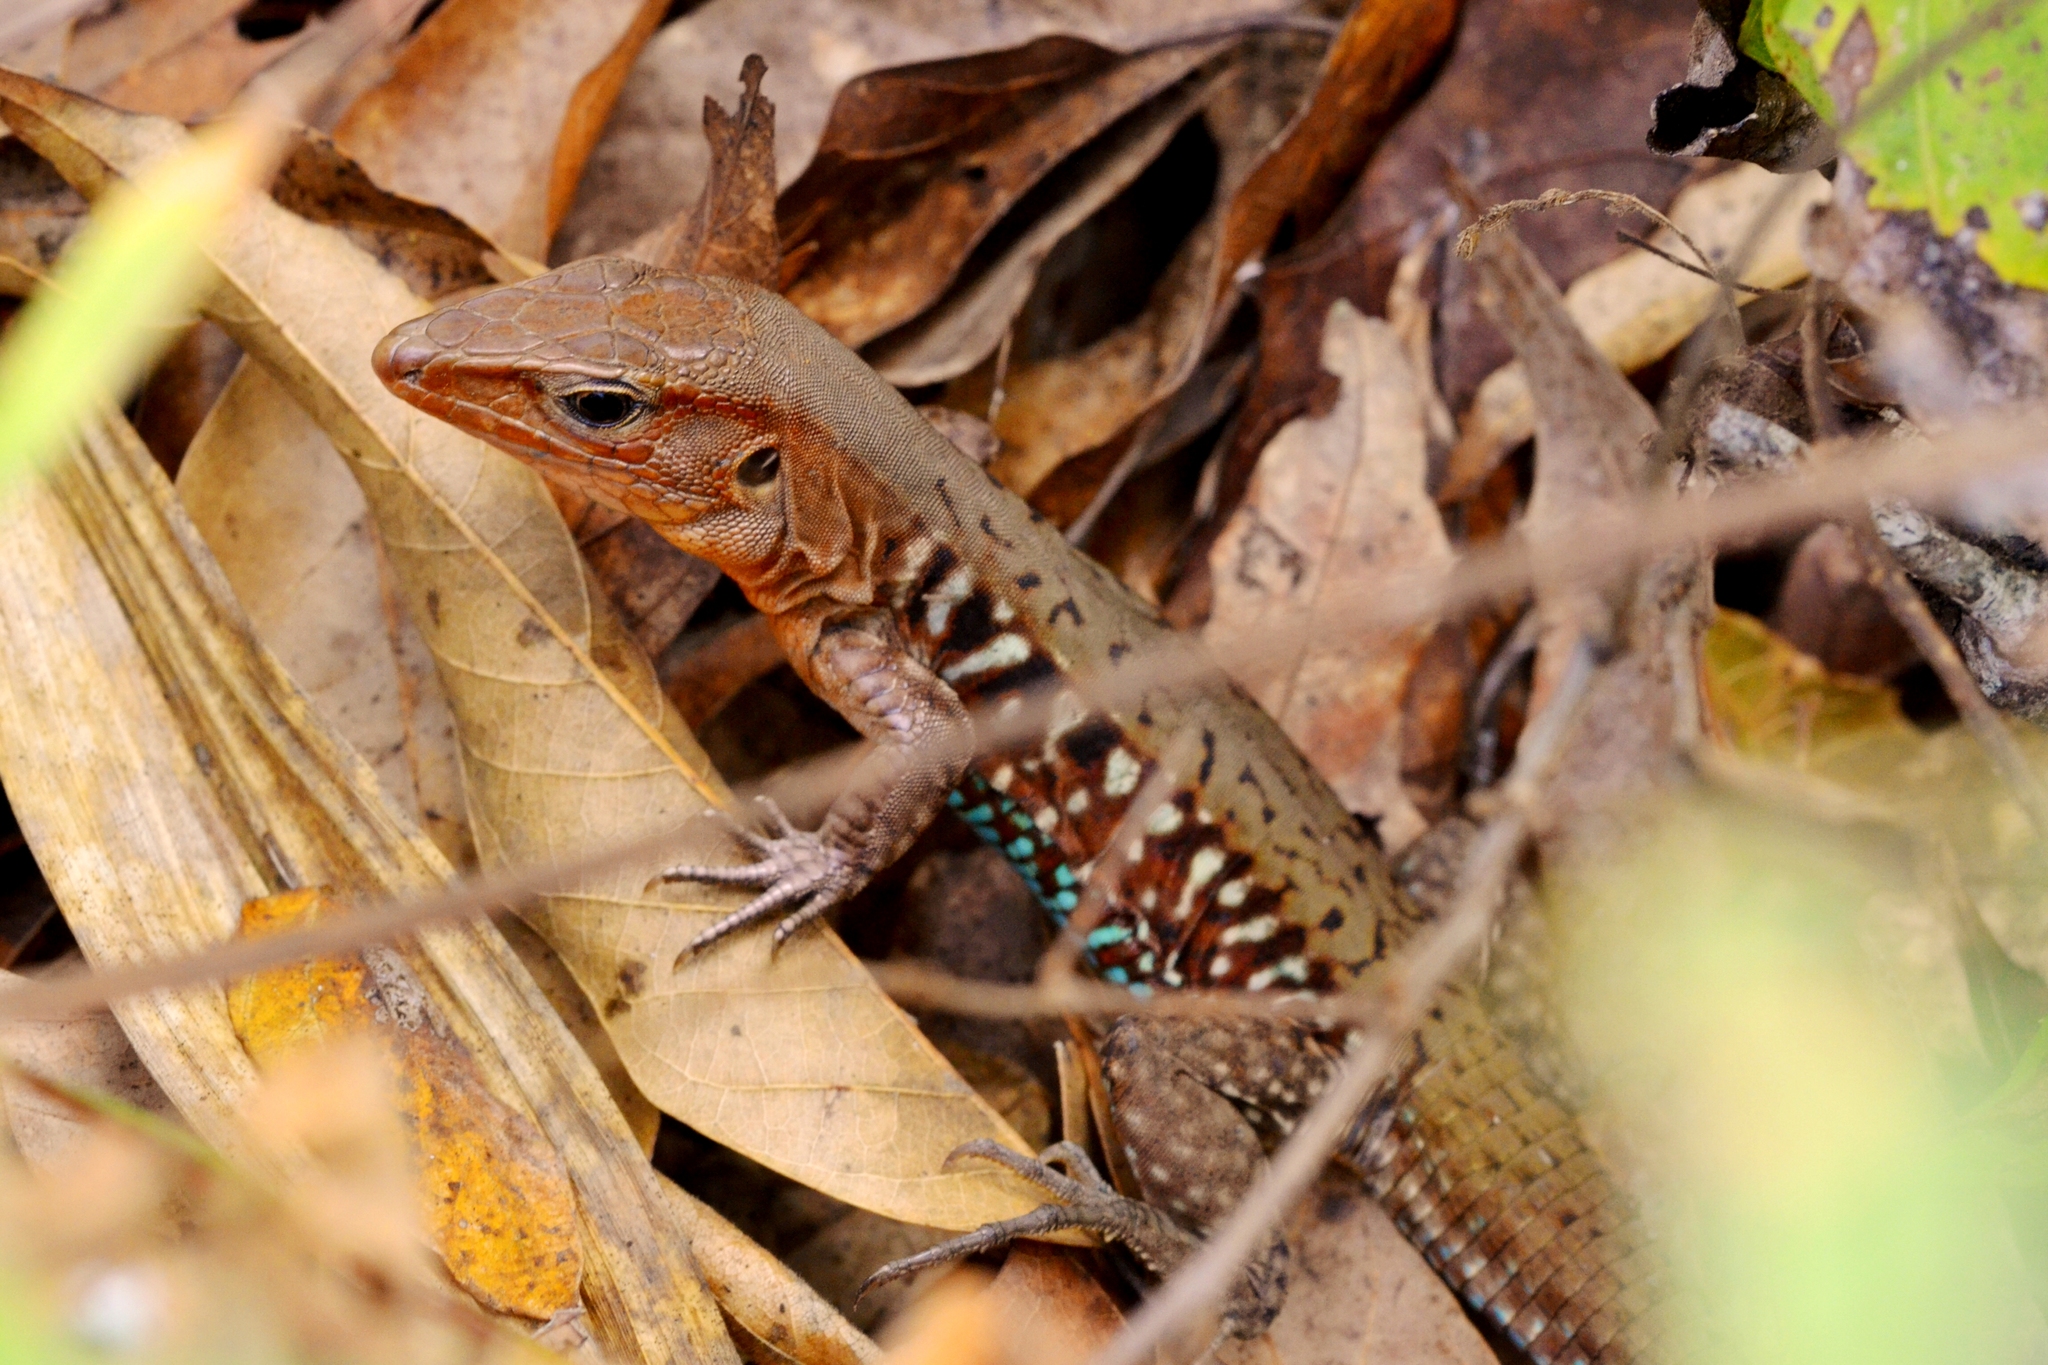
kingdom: Animalia
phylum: Chordata
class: Squamata
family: Teiidae
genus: Holcosus
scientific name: Holcosus undulatus
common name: Rainbow ameiva
